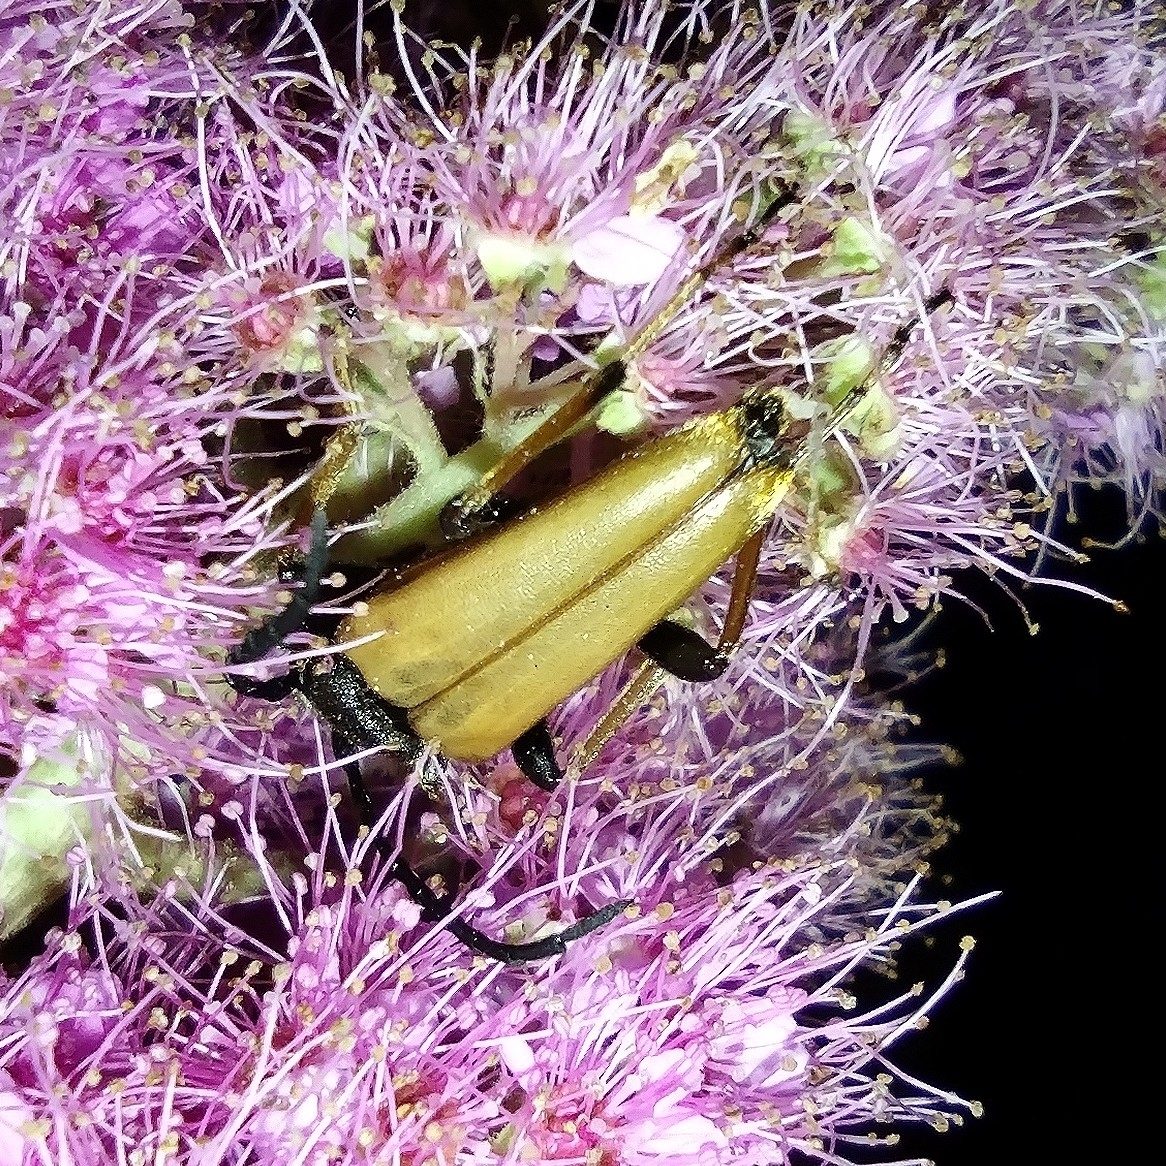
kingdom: Animalia
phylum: Arthropoda
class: Insecta
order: Coleoptera
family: Cerambycidae
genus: Stictoleptura
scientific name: Stictoleptura rubra
